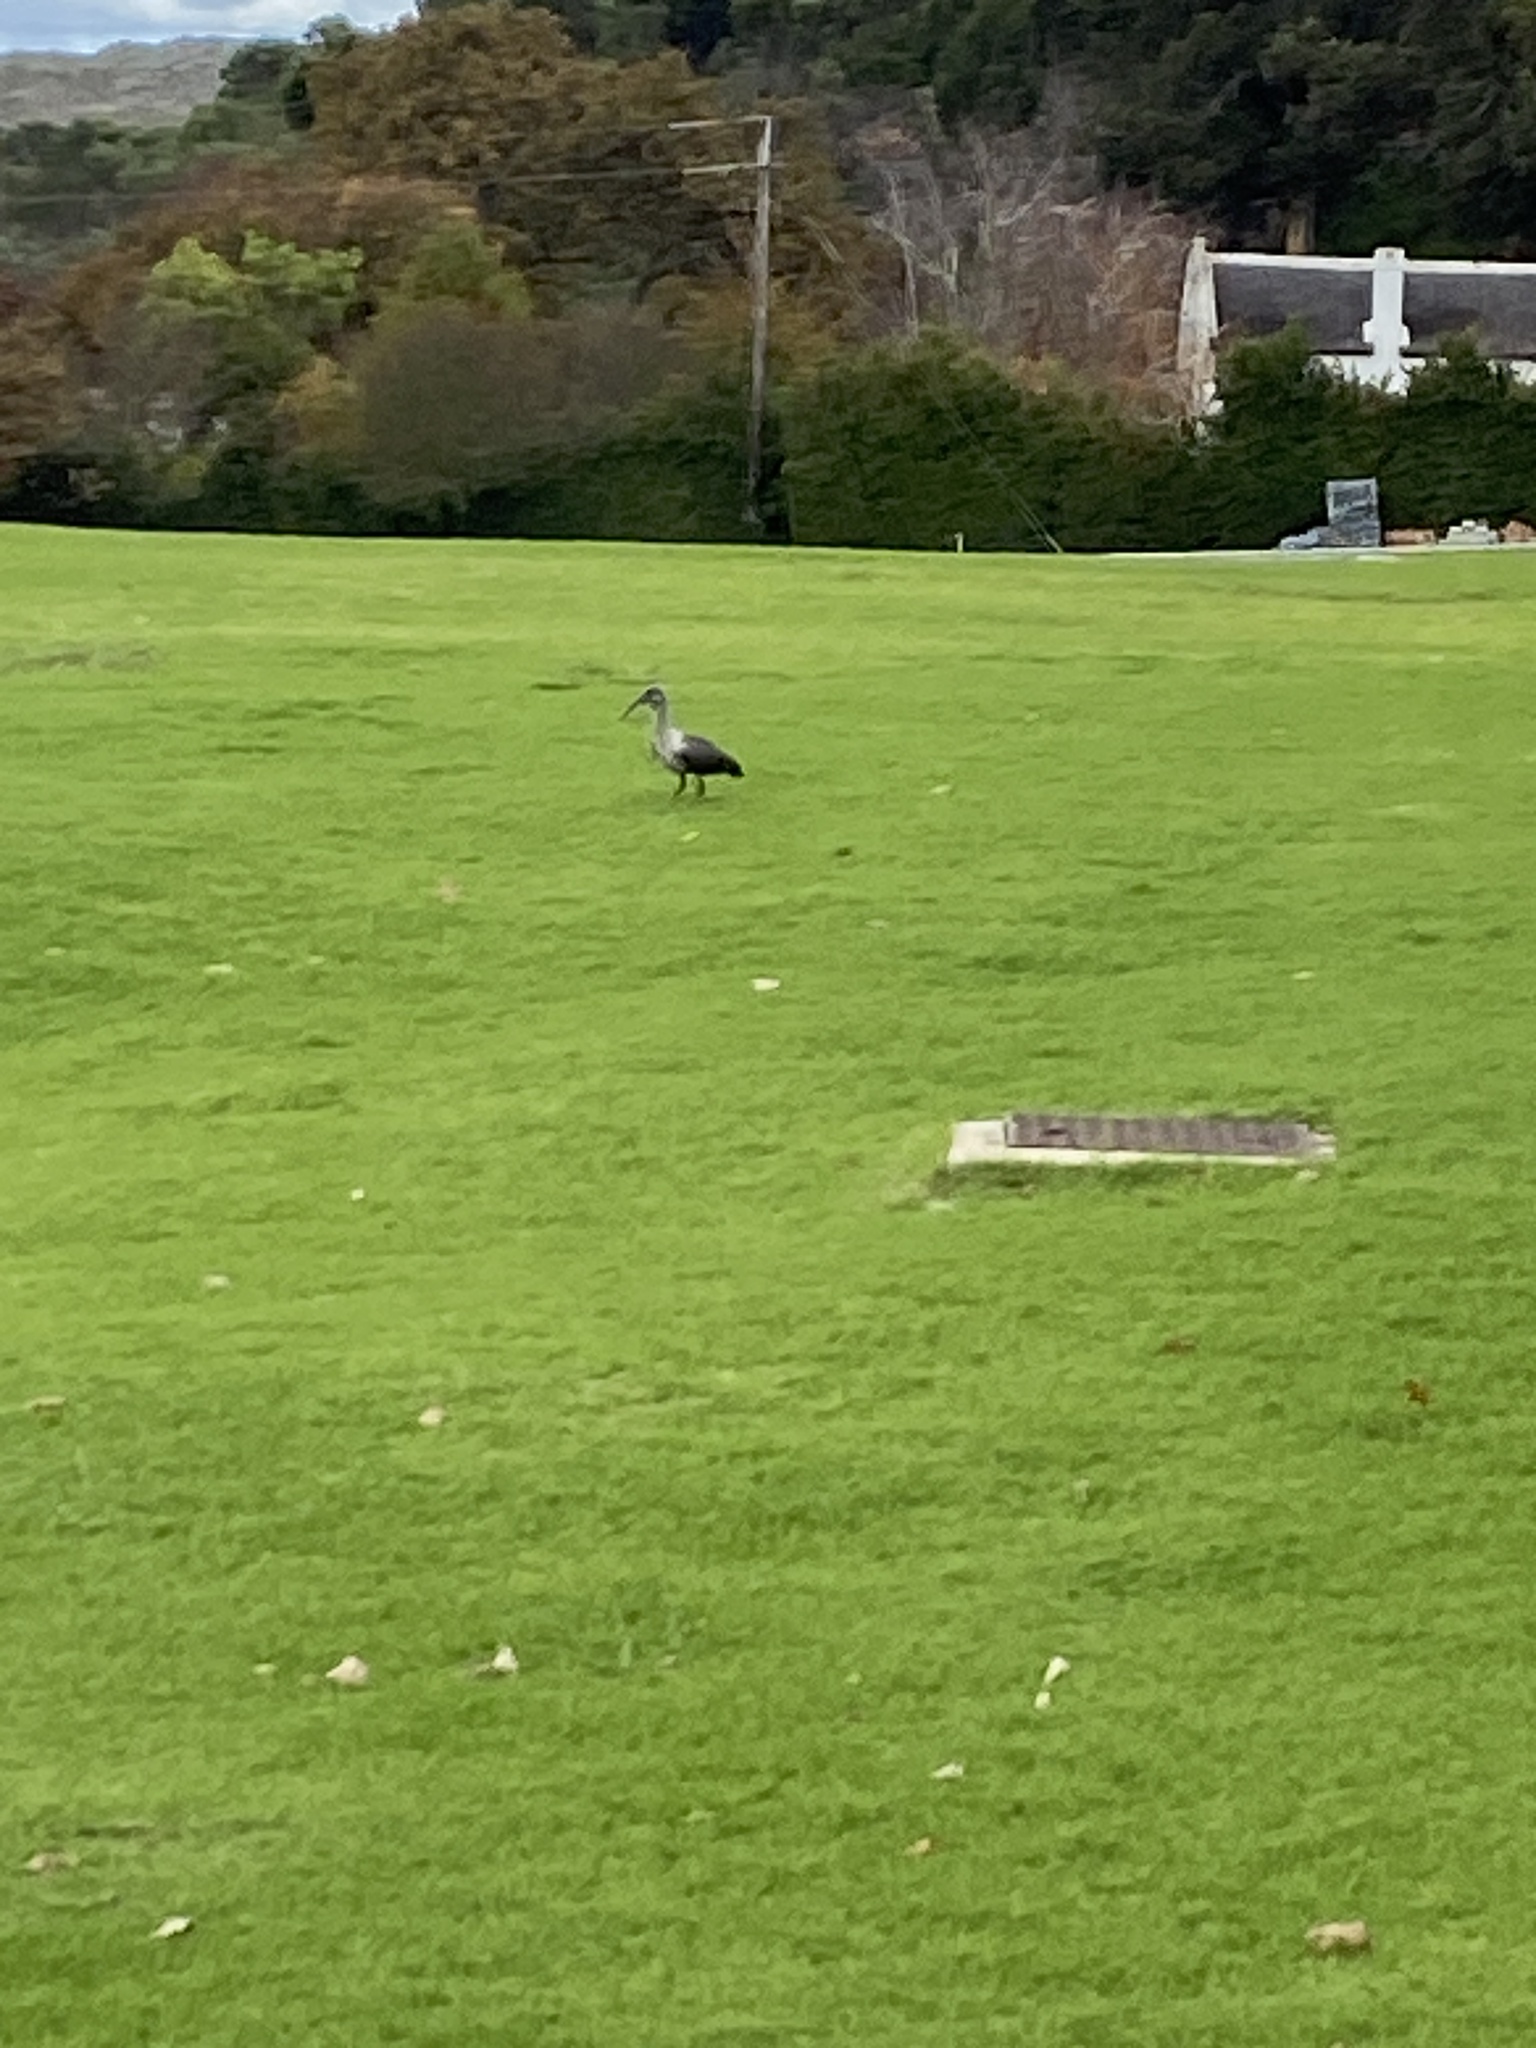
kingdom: Animalia
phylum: Chordata
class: Aves
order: Pelecaniformes
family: Threskiornithidae
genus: Bostrychia
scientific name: Bostrychia hagedash
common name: Hadada ibis
